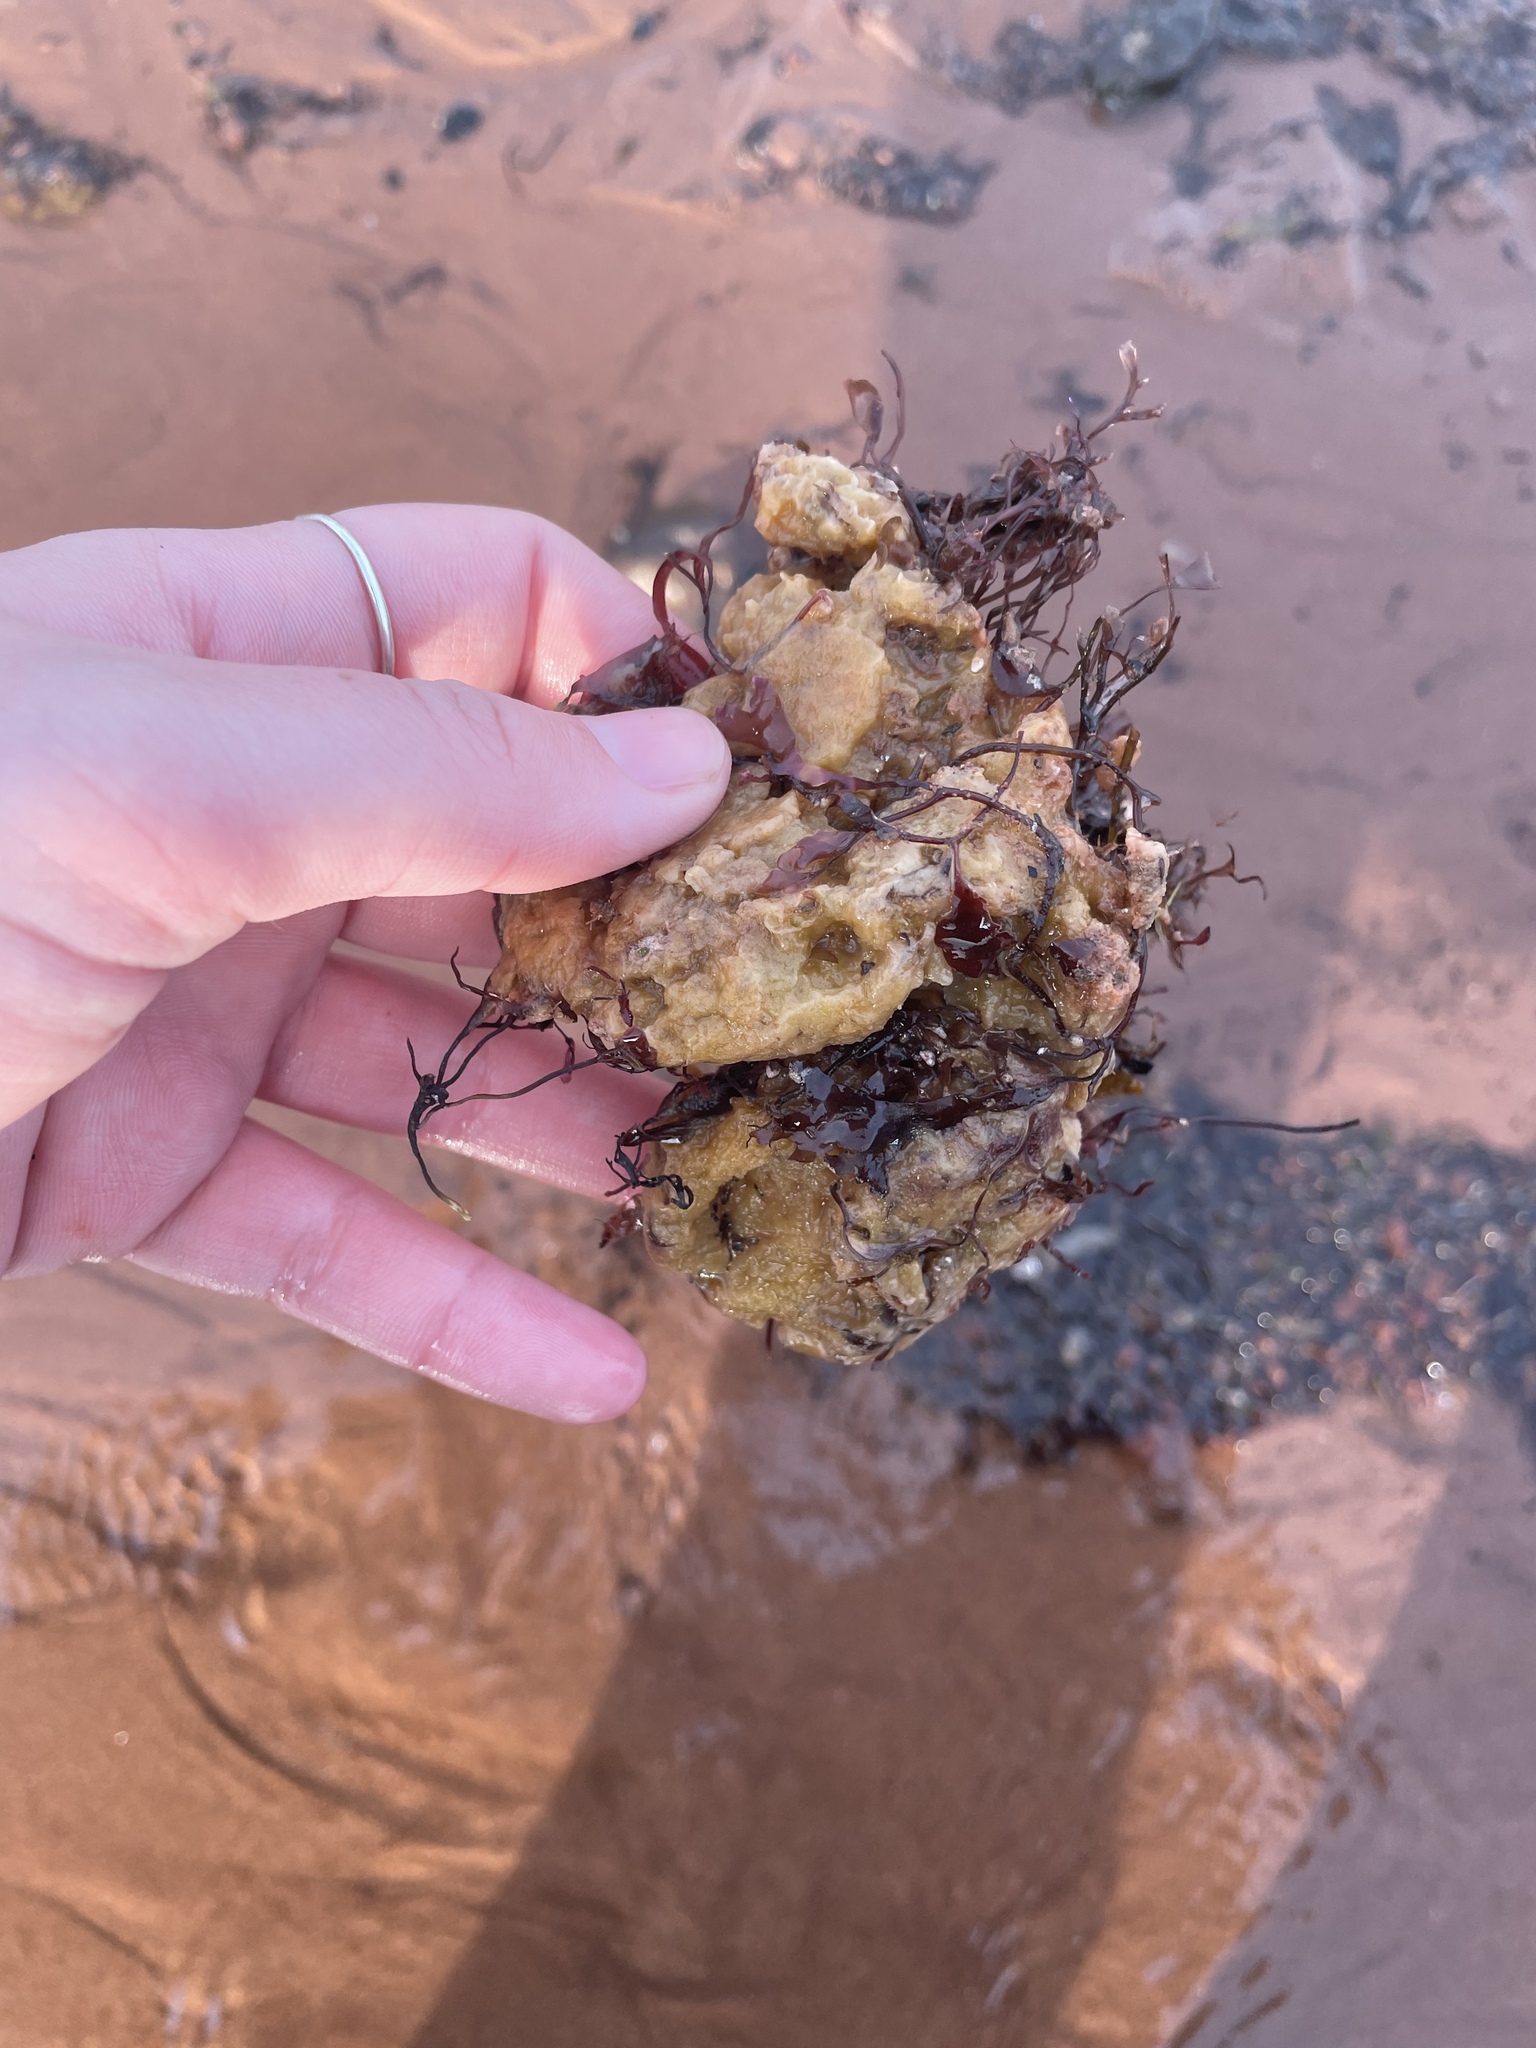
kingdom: Animalia
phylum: Porifera
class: Demospongiae
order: Suberitida
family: Halichondriidae
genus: Halichondria
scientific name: Halichondria panicea
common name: Breadcrumb sponge
